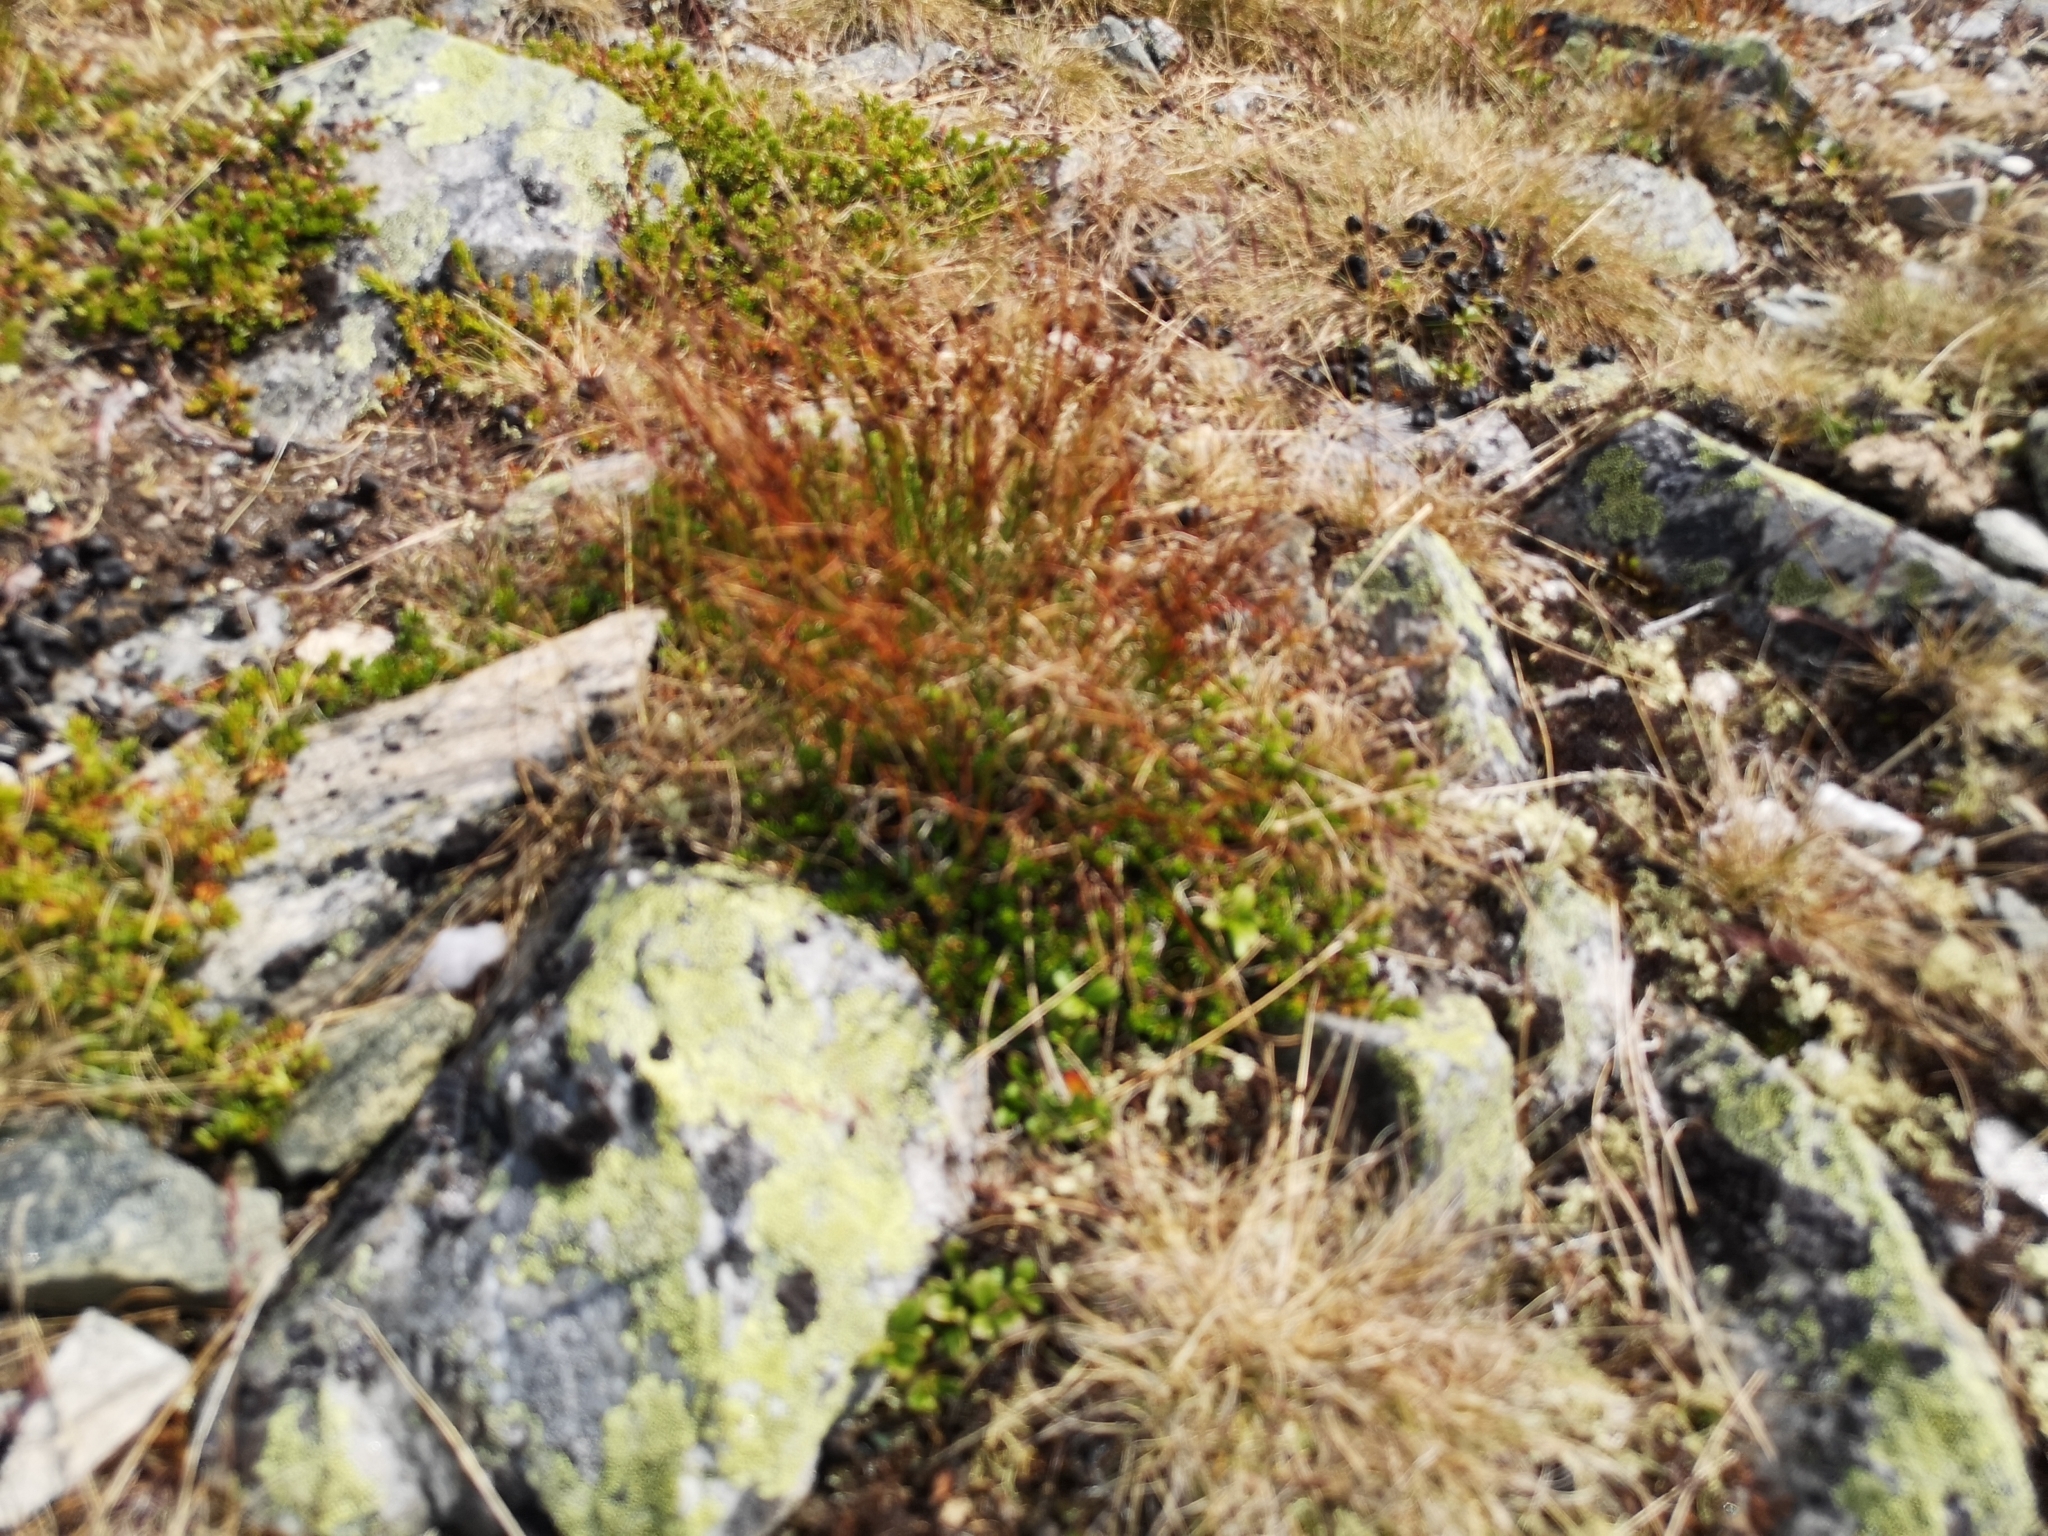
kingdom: Plantae
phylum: Tracheophyta
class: Liliopsida
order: Poales
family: Juncaceae
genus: Oreojuncus
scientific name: Oreojuncus trifidus
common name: Highland rush
